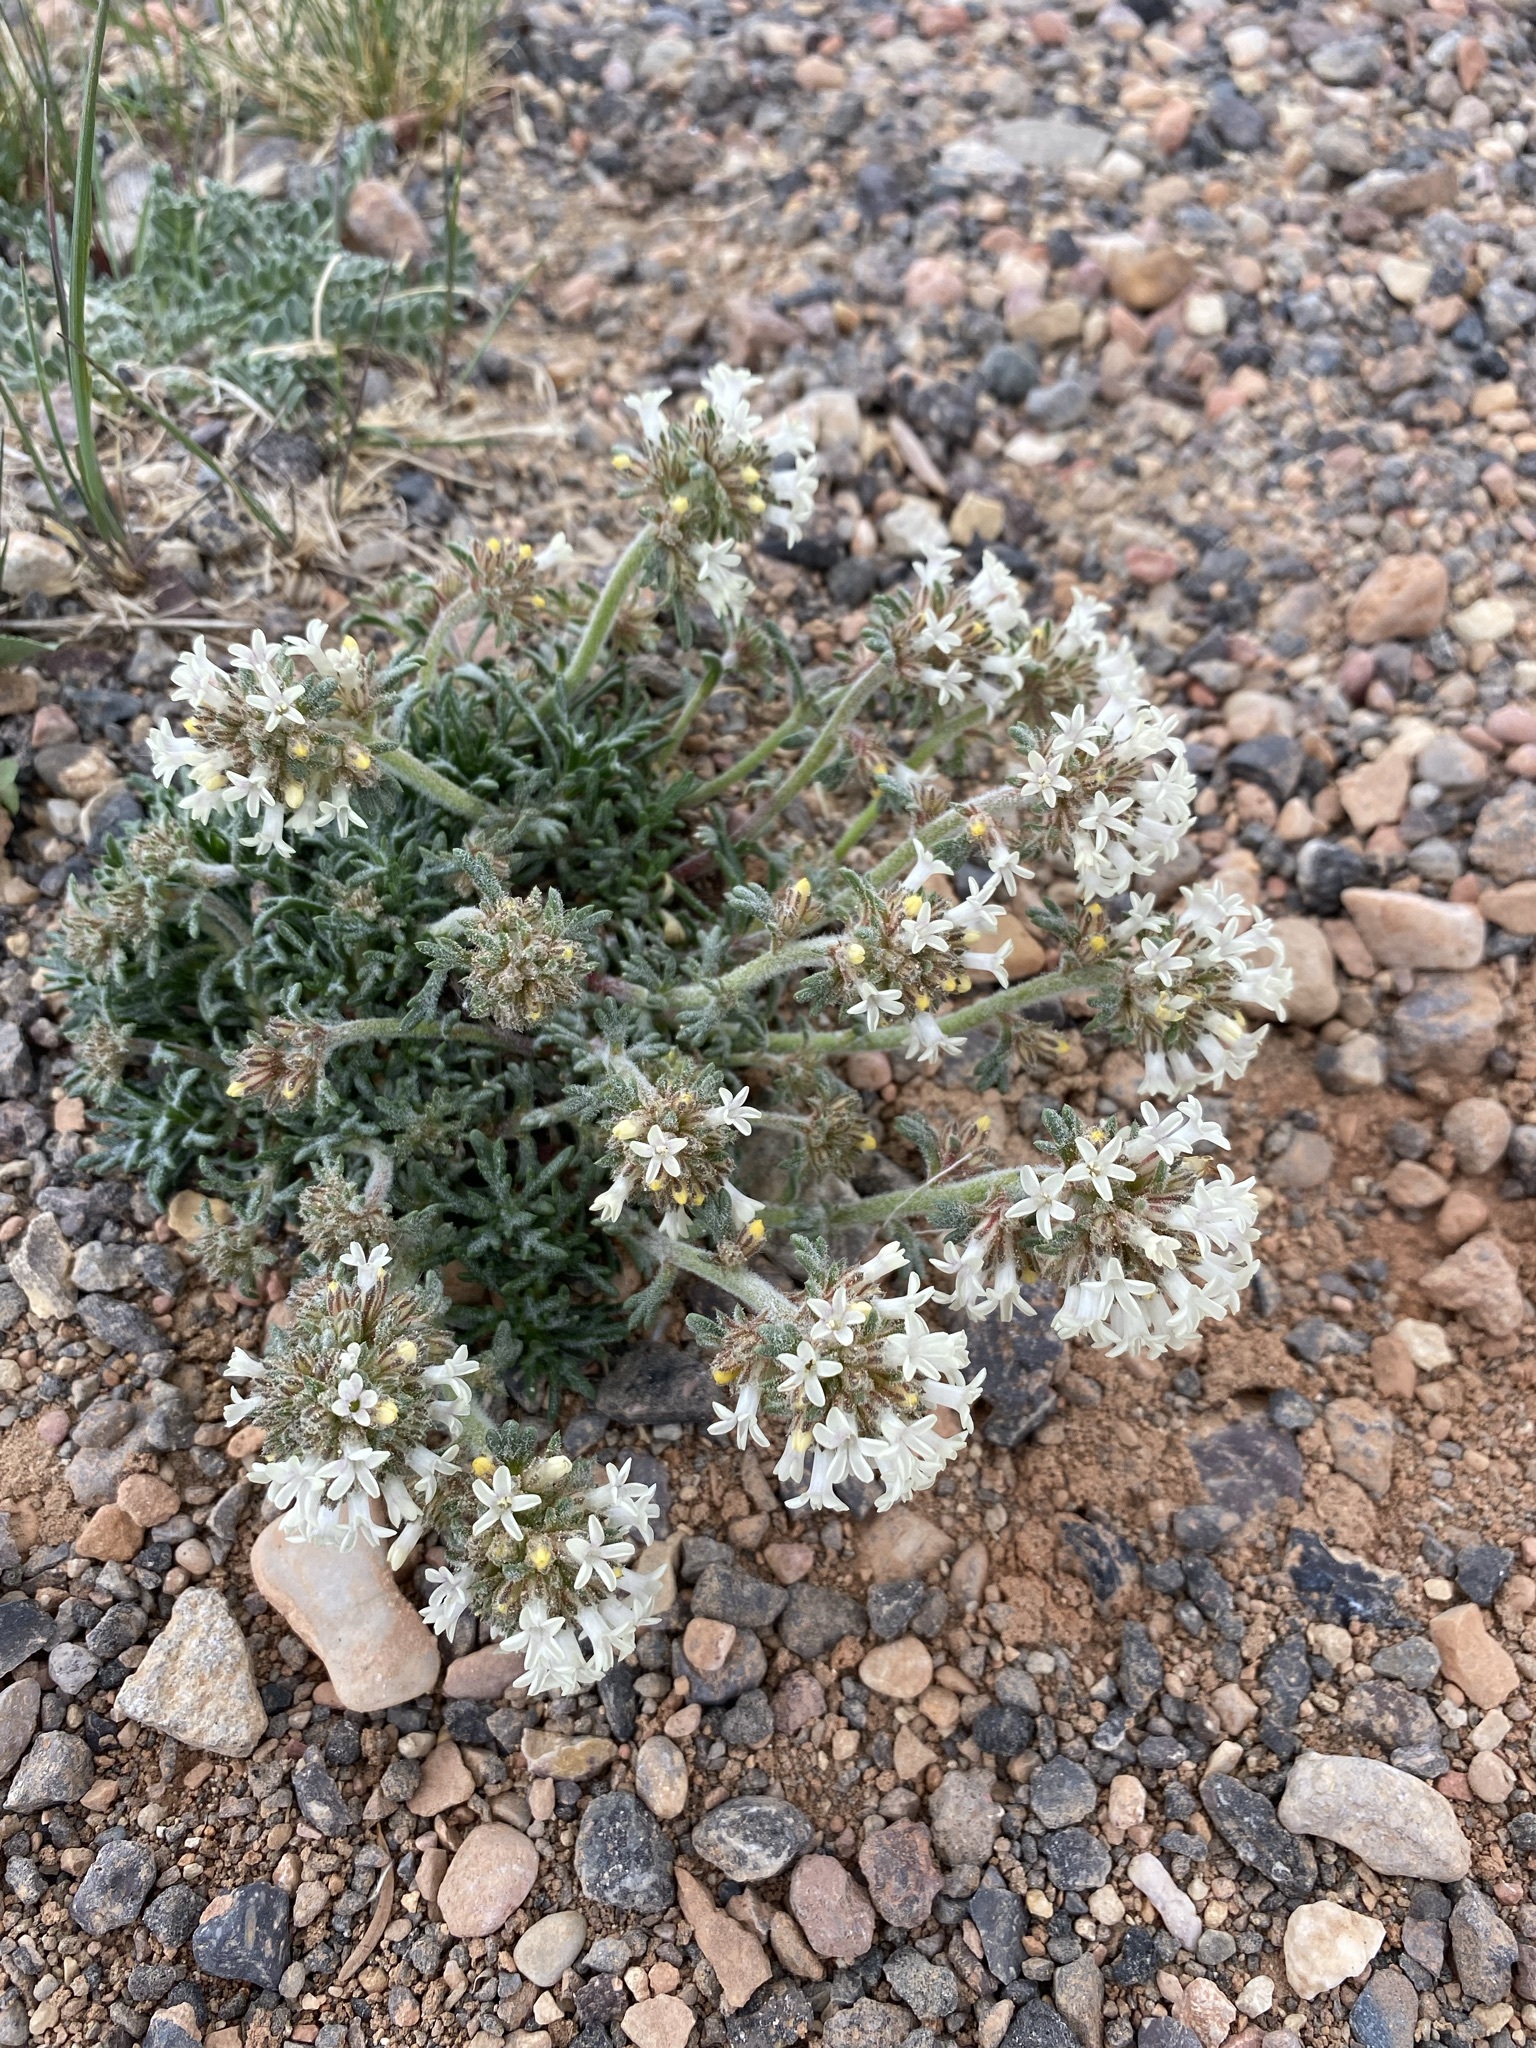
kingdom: Plantae
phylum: Tracheophyta
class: Magnoliopsida
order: Ericales
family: Polemoniaceae
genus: Ipomopsis
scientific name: Ipomopsis spicata
